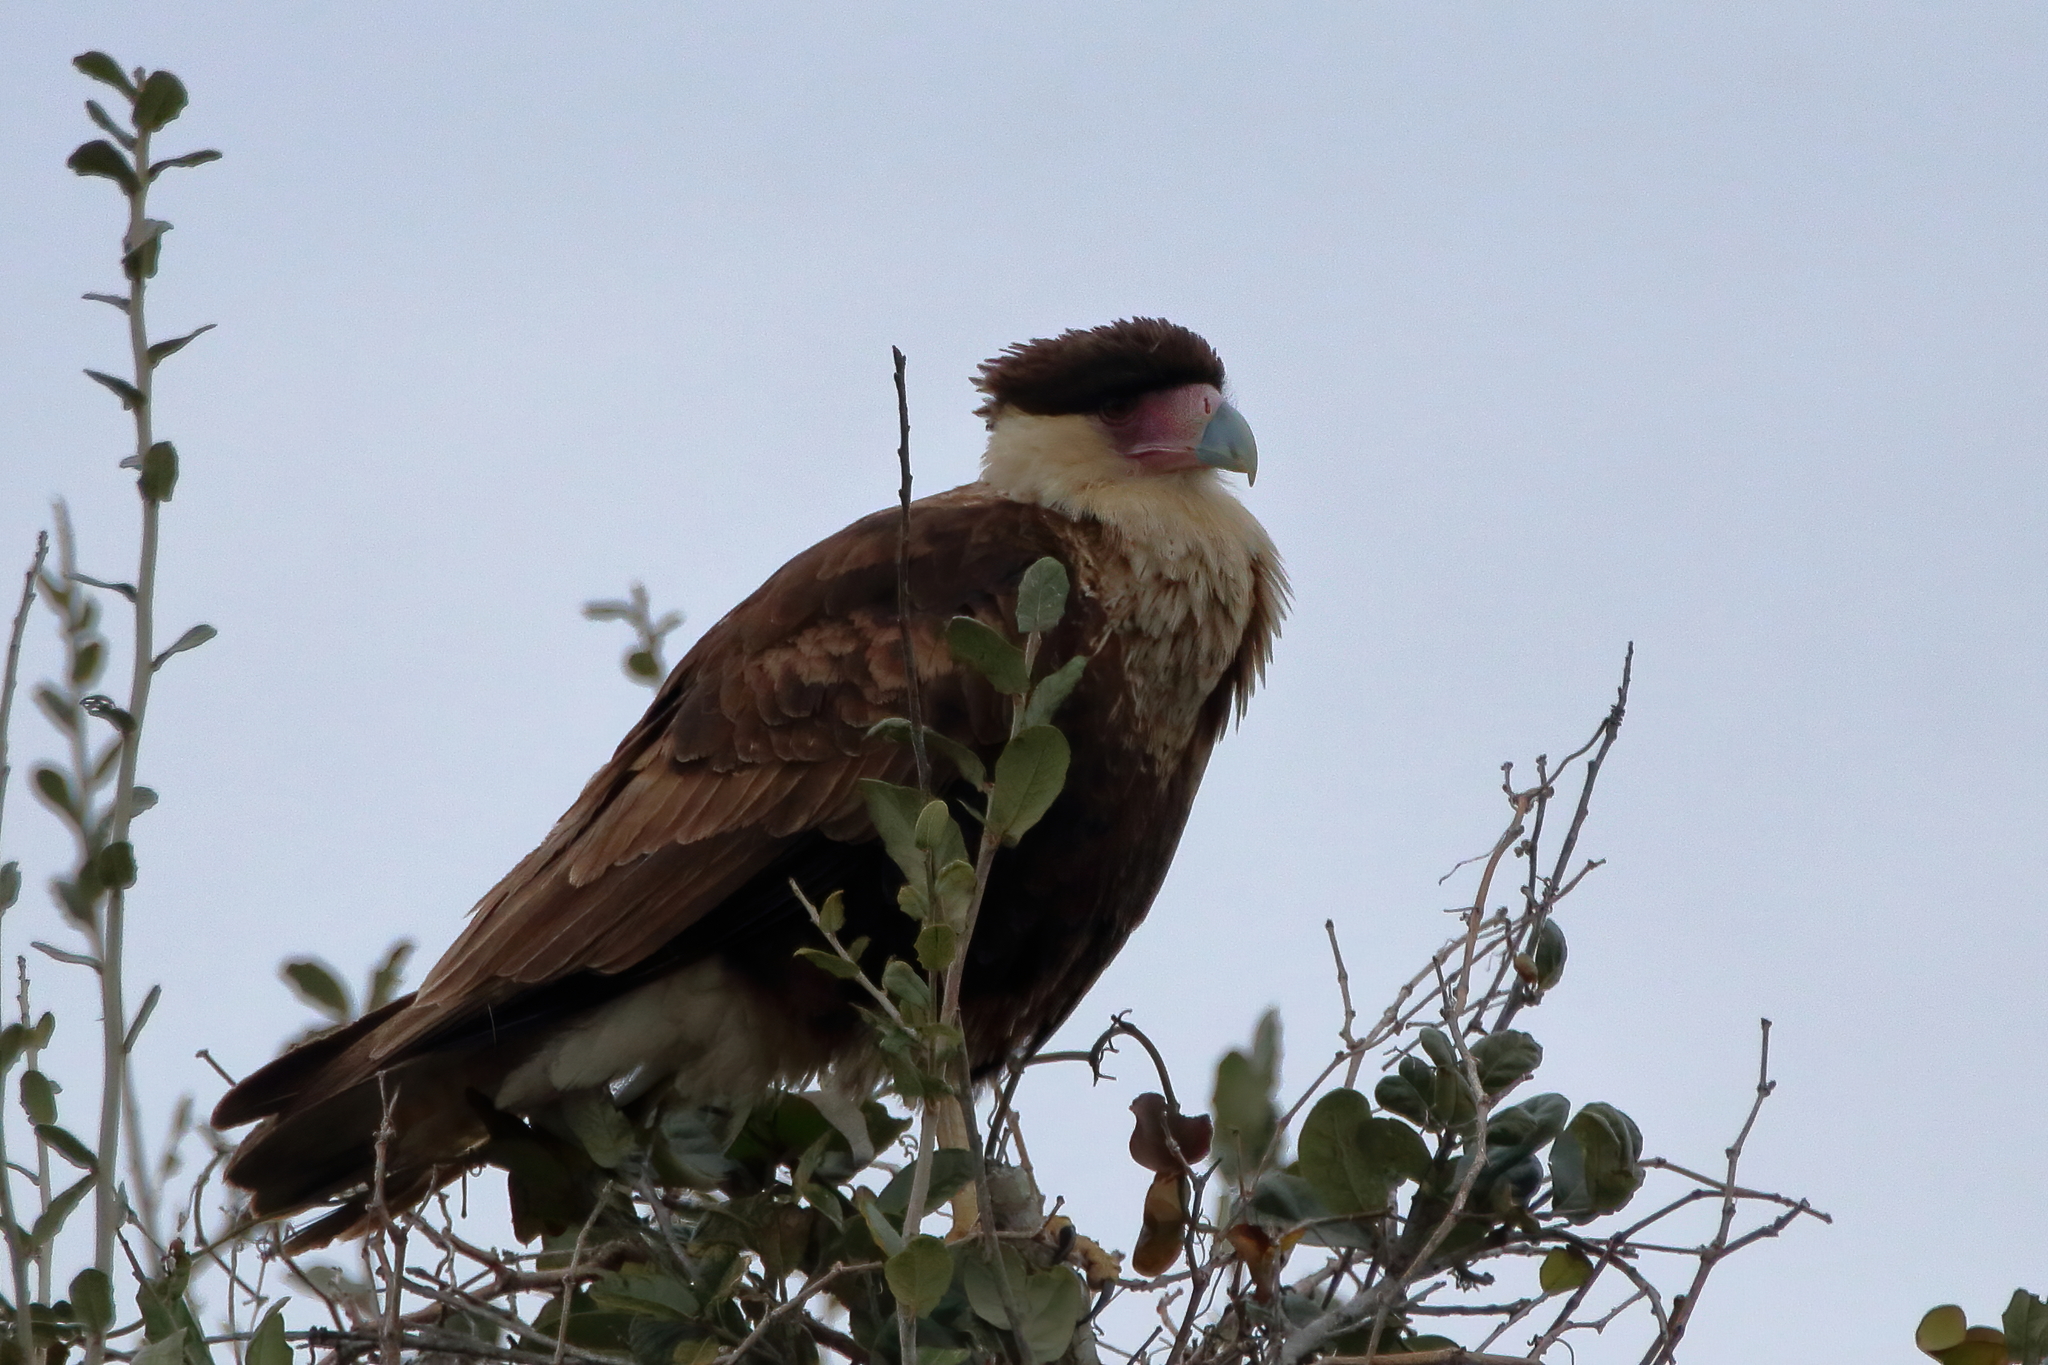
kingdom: Animalia
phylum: Chordata
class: Aves
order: Falconiformes
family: Falconidae
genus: Caracara
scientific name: Caracara plancus
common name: Southern caracara
